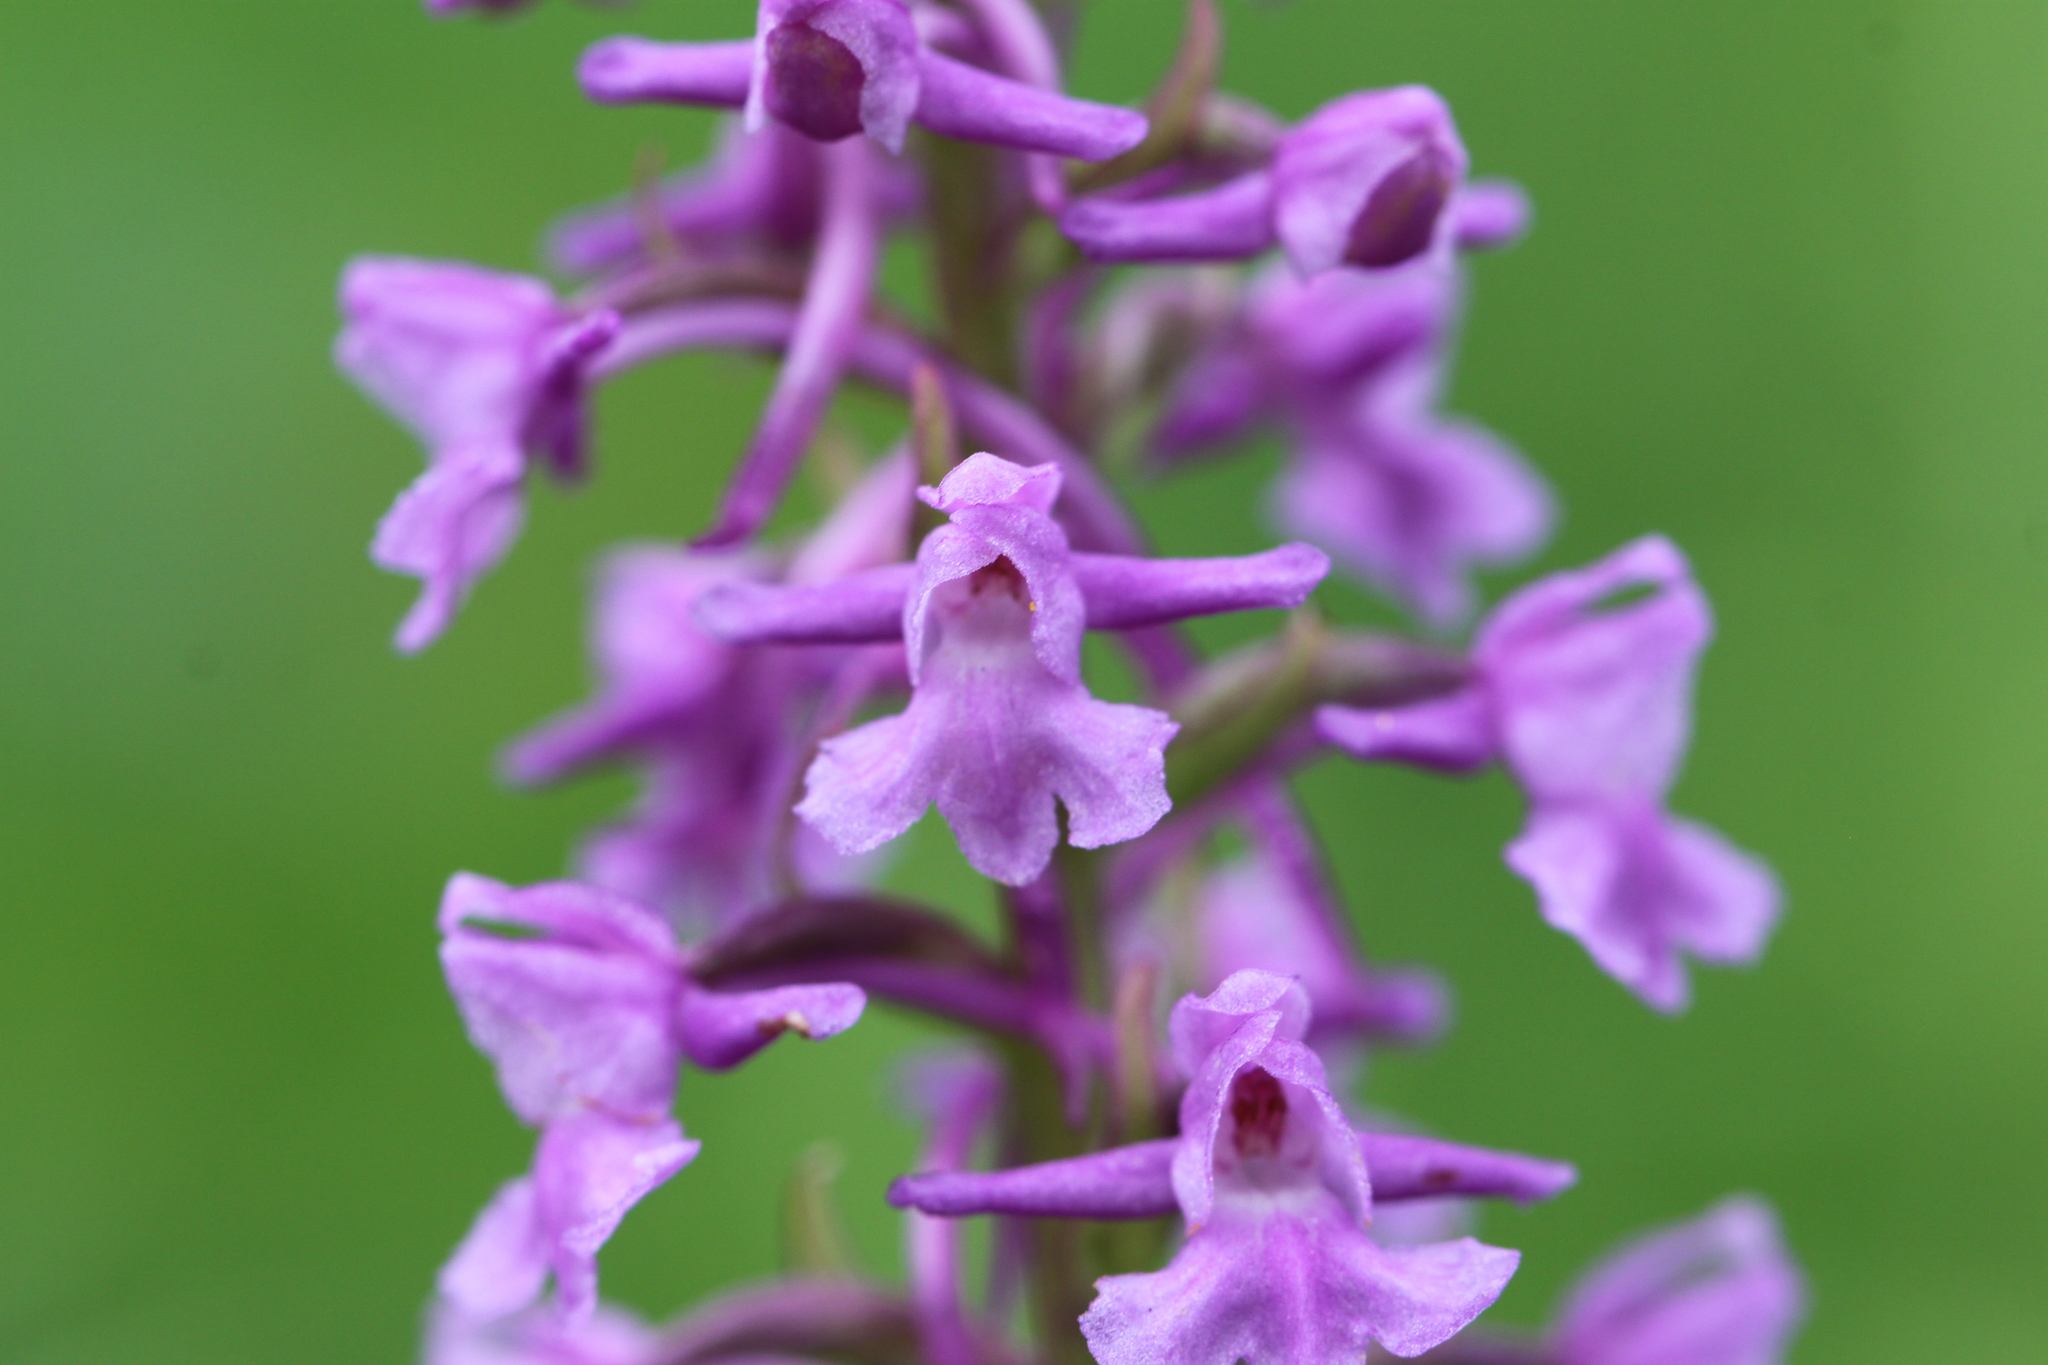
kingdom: Plantae
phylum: Tracheophyta
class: Liliopsida
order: Asparagales
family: Orchidaceae
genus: Gymnadenia
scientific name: Gymnadenia conopsea
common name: Fragrant orchid
